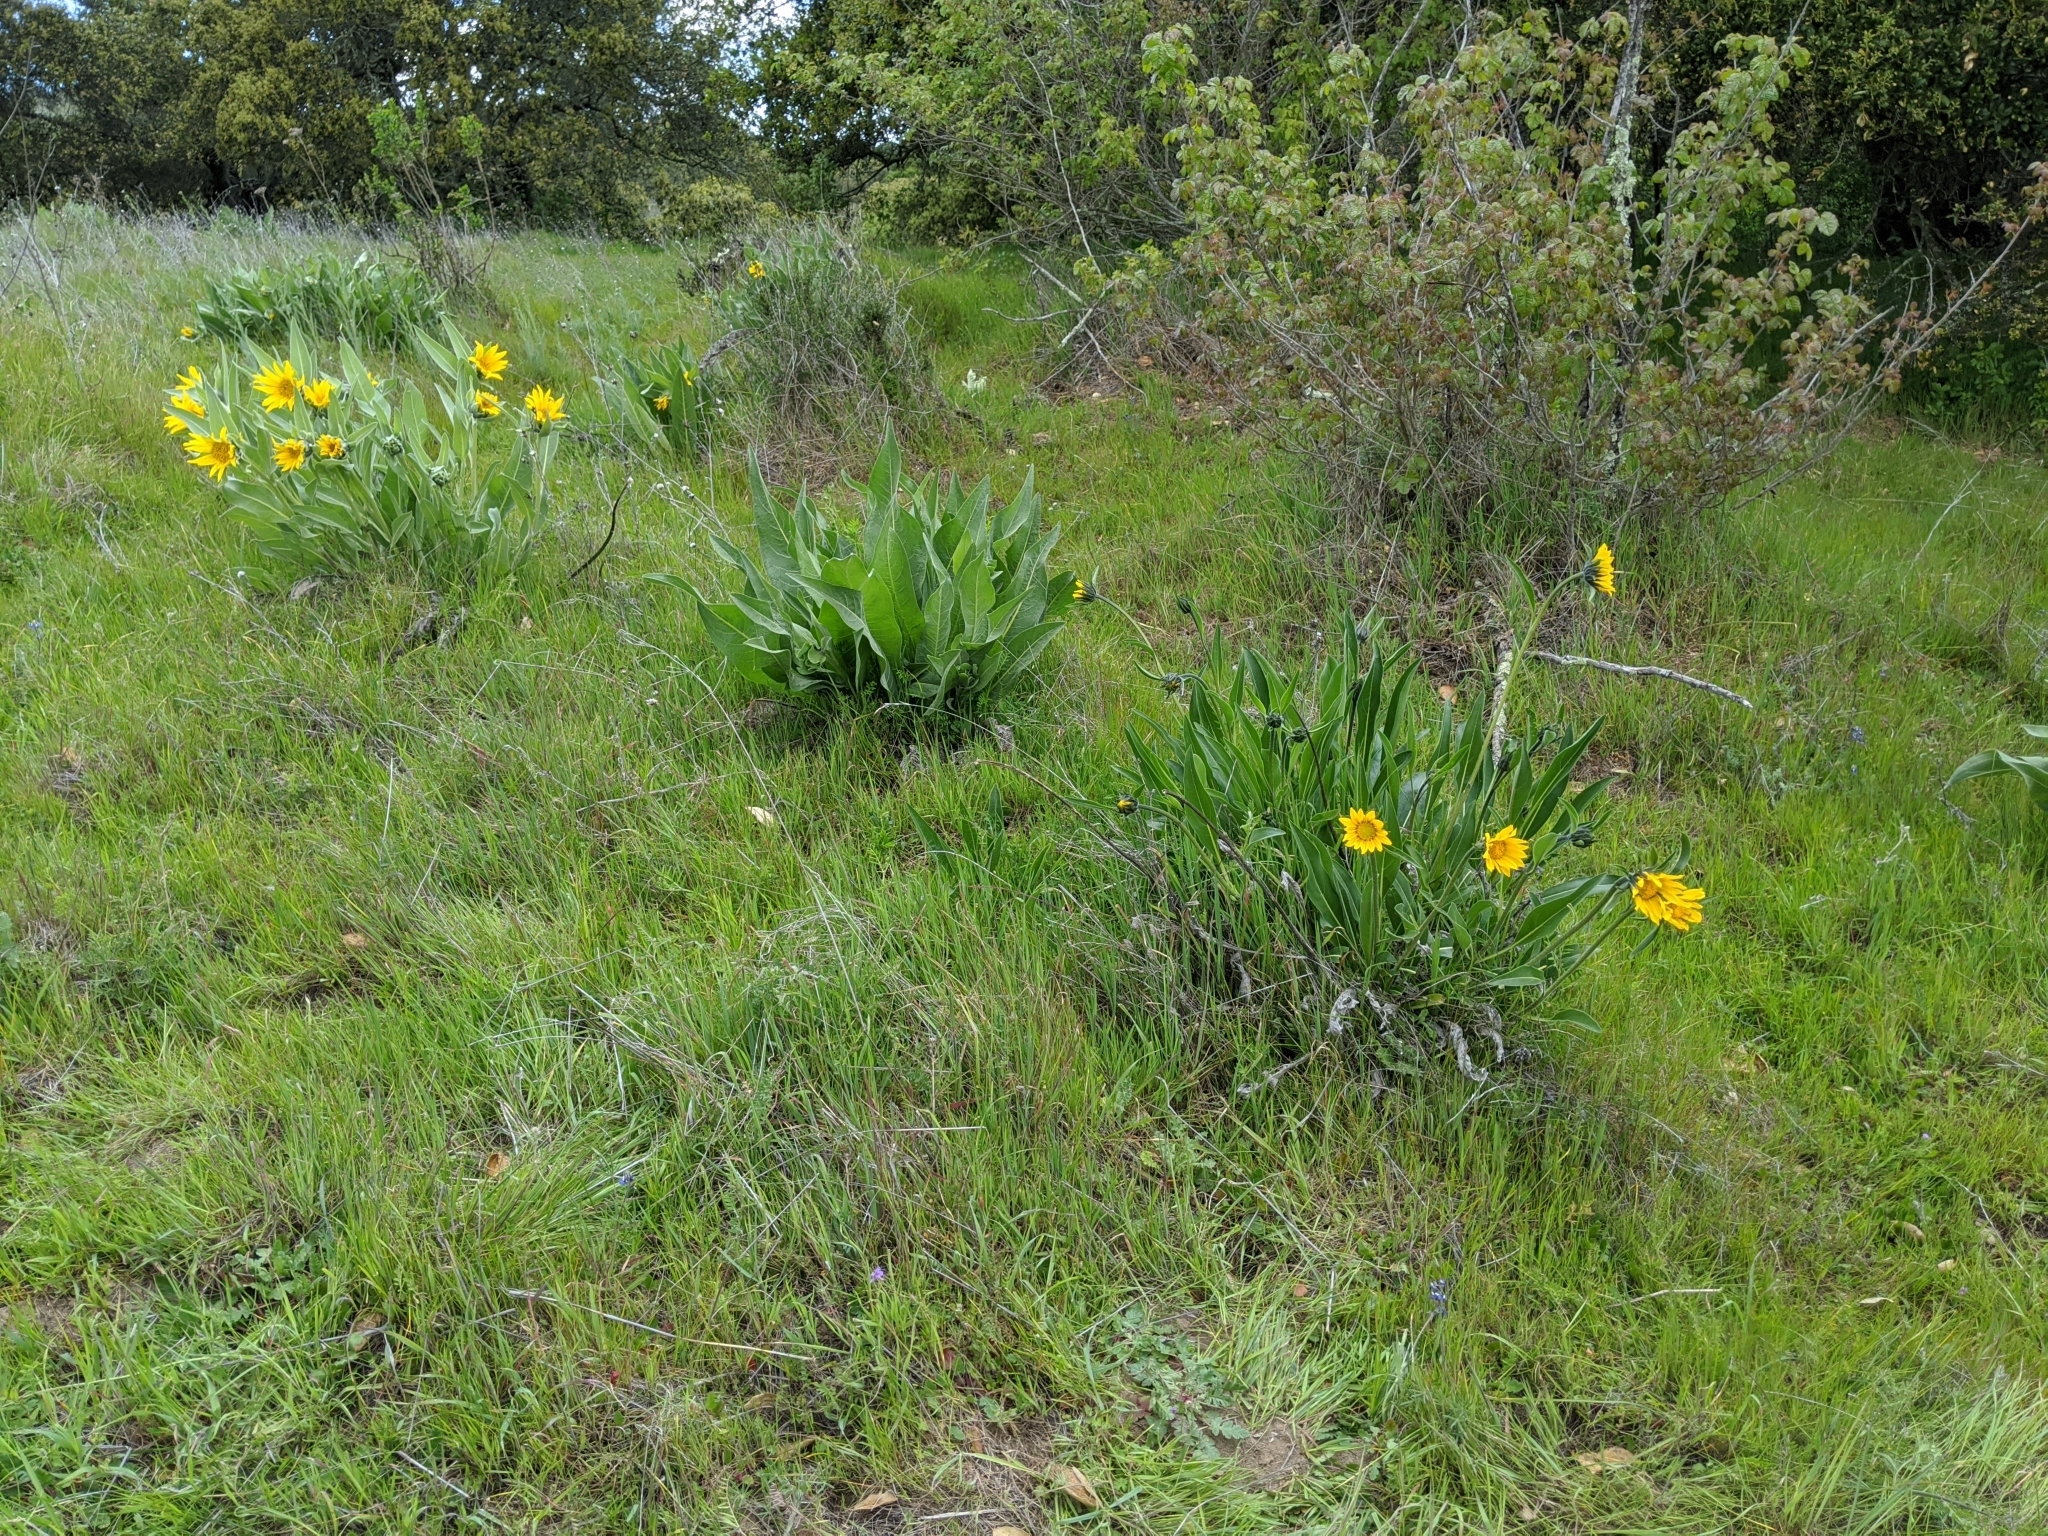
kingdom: Plantae
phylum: Tracheophyta
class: Magnoliopsida
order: Asterales
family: Asteraceae
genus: Helianthella
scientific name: Helianthella castanea
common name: Diablo helianthella
